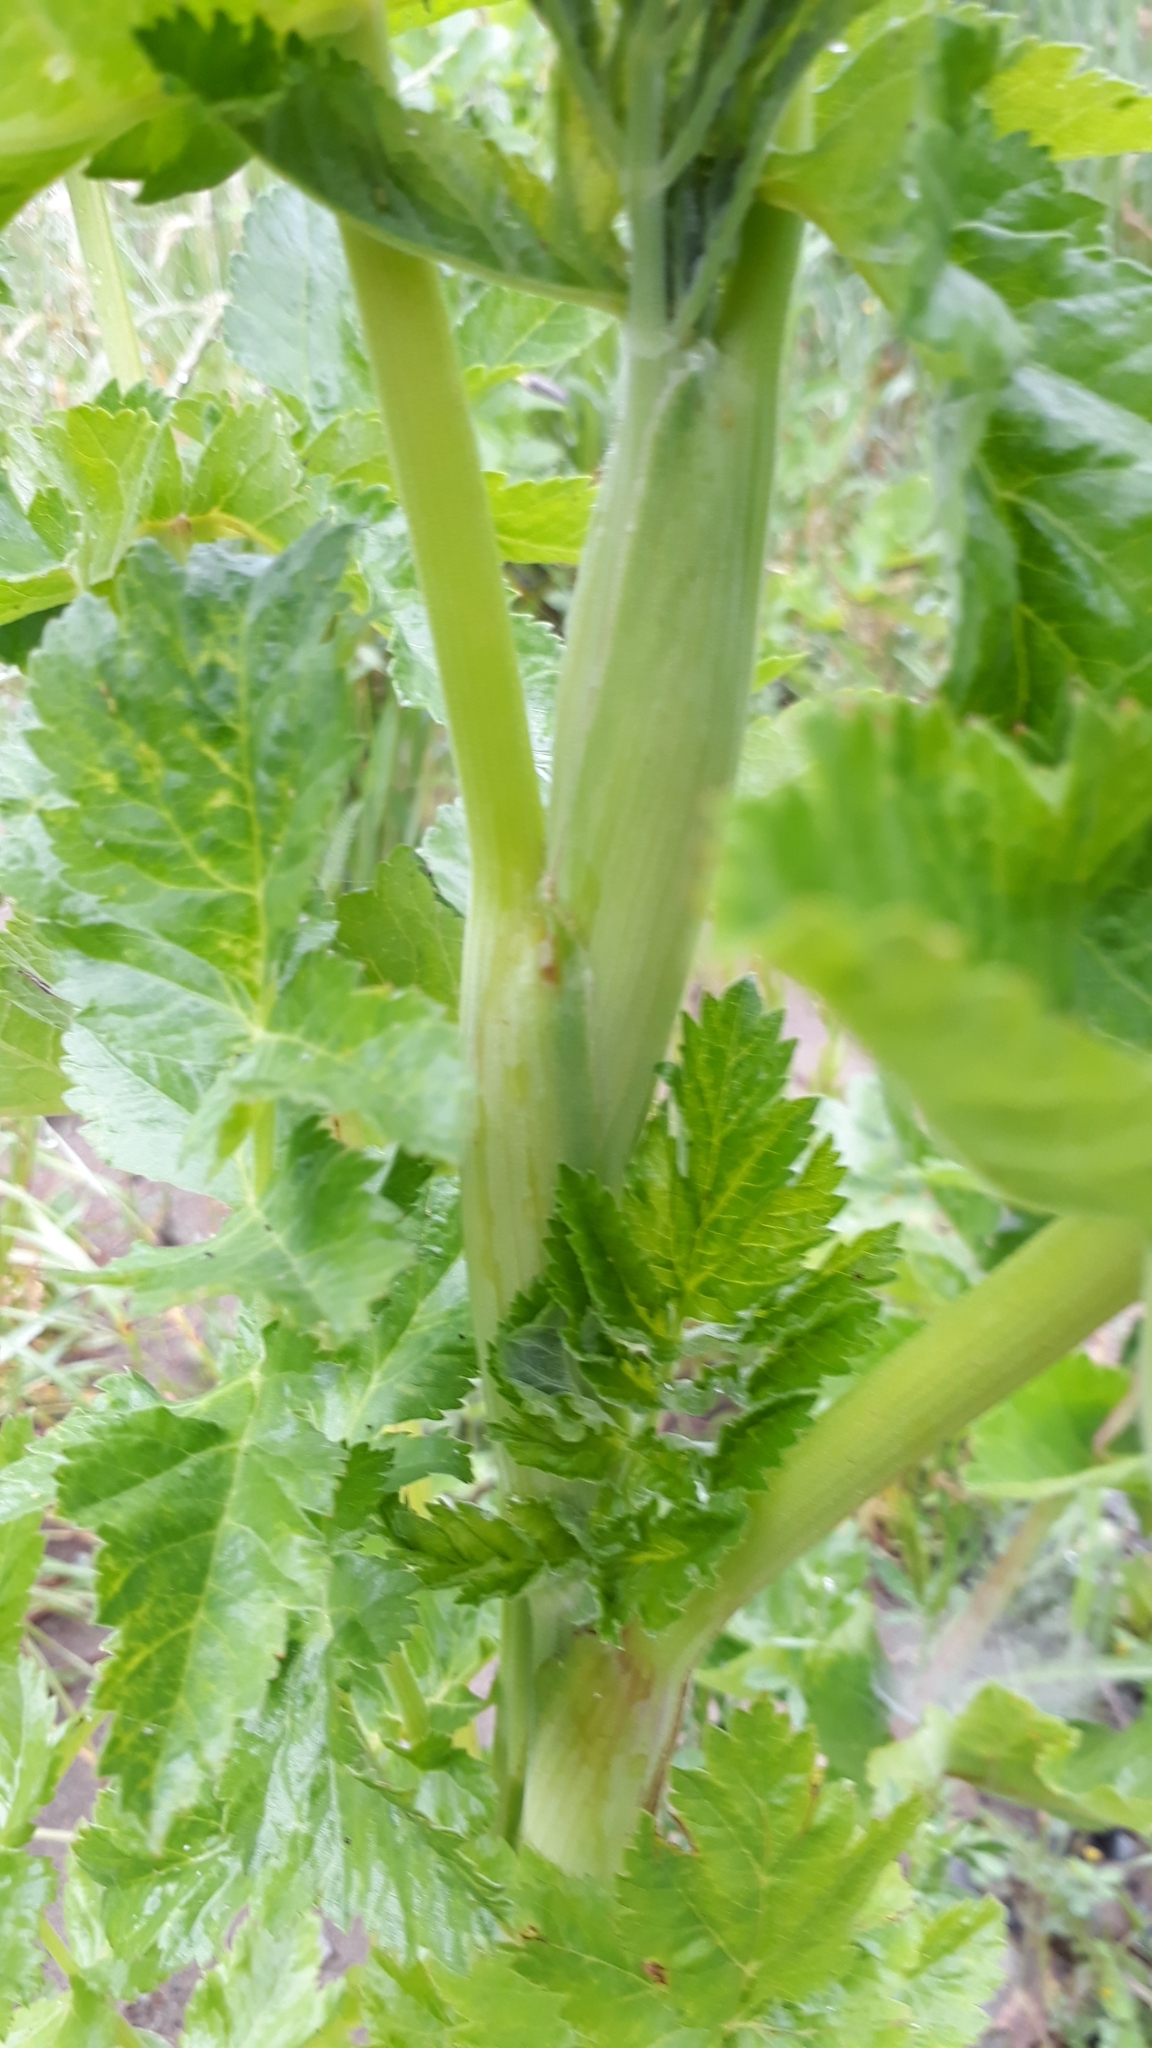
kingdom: Plantae
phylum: Tracheophyta
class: Magnoliopsida
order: Apiales
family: Apiaceae
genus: Pastinaca
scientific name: Pastinaca sativa
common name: Wild parsnip
